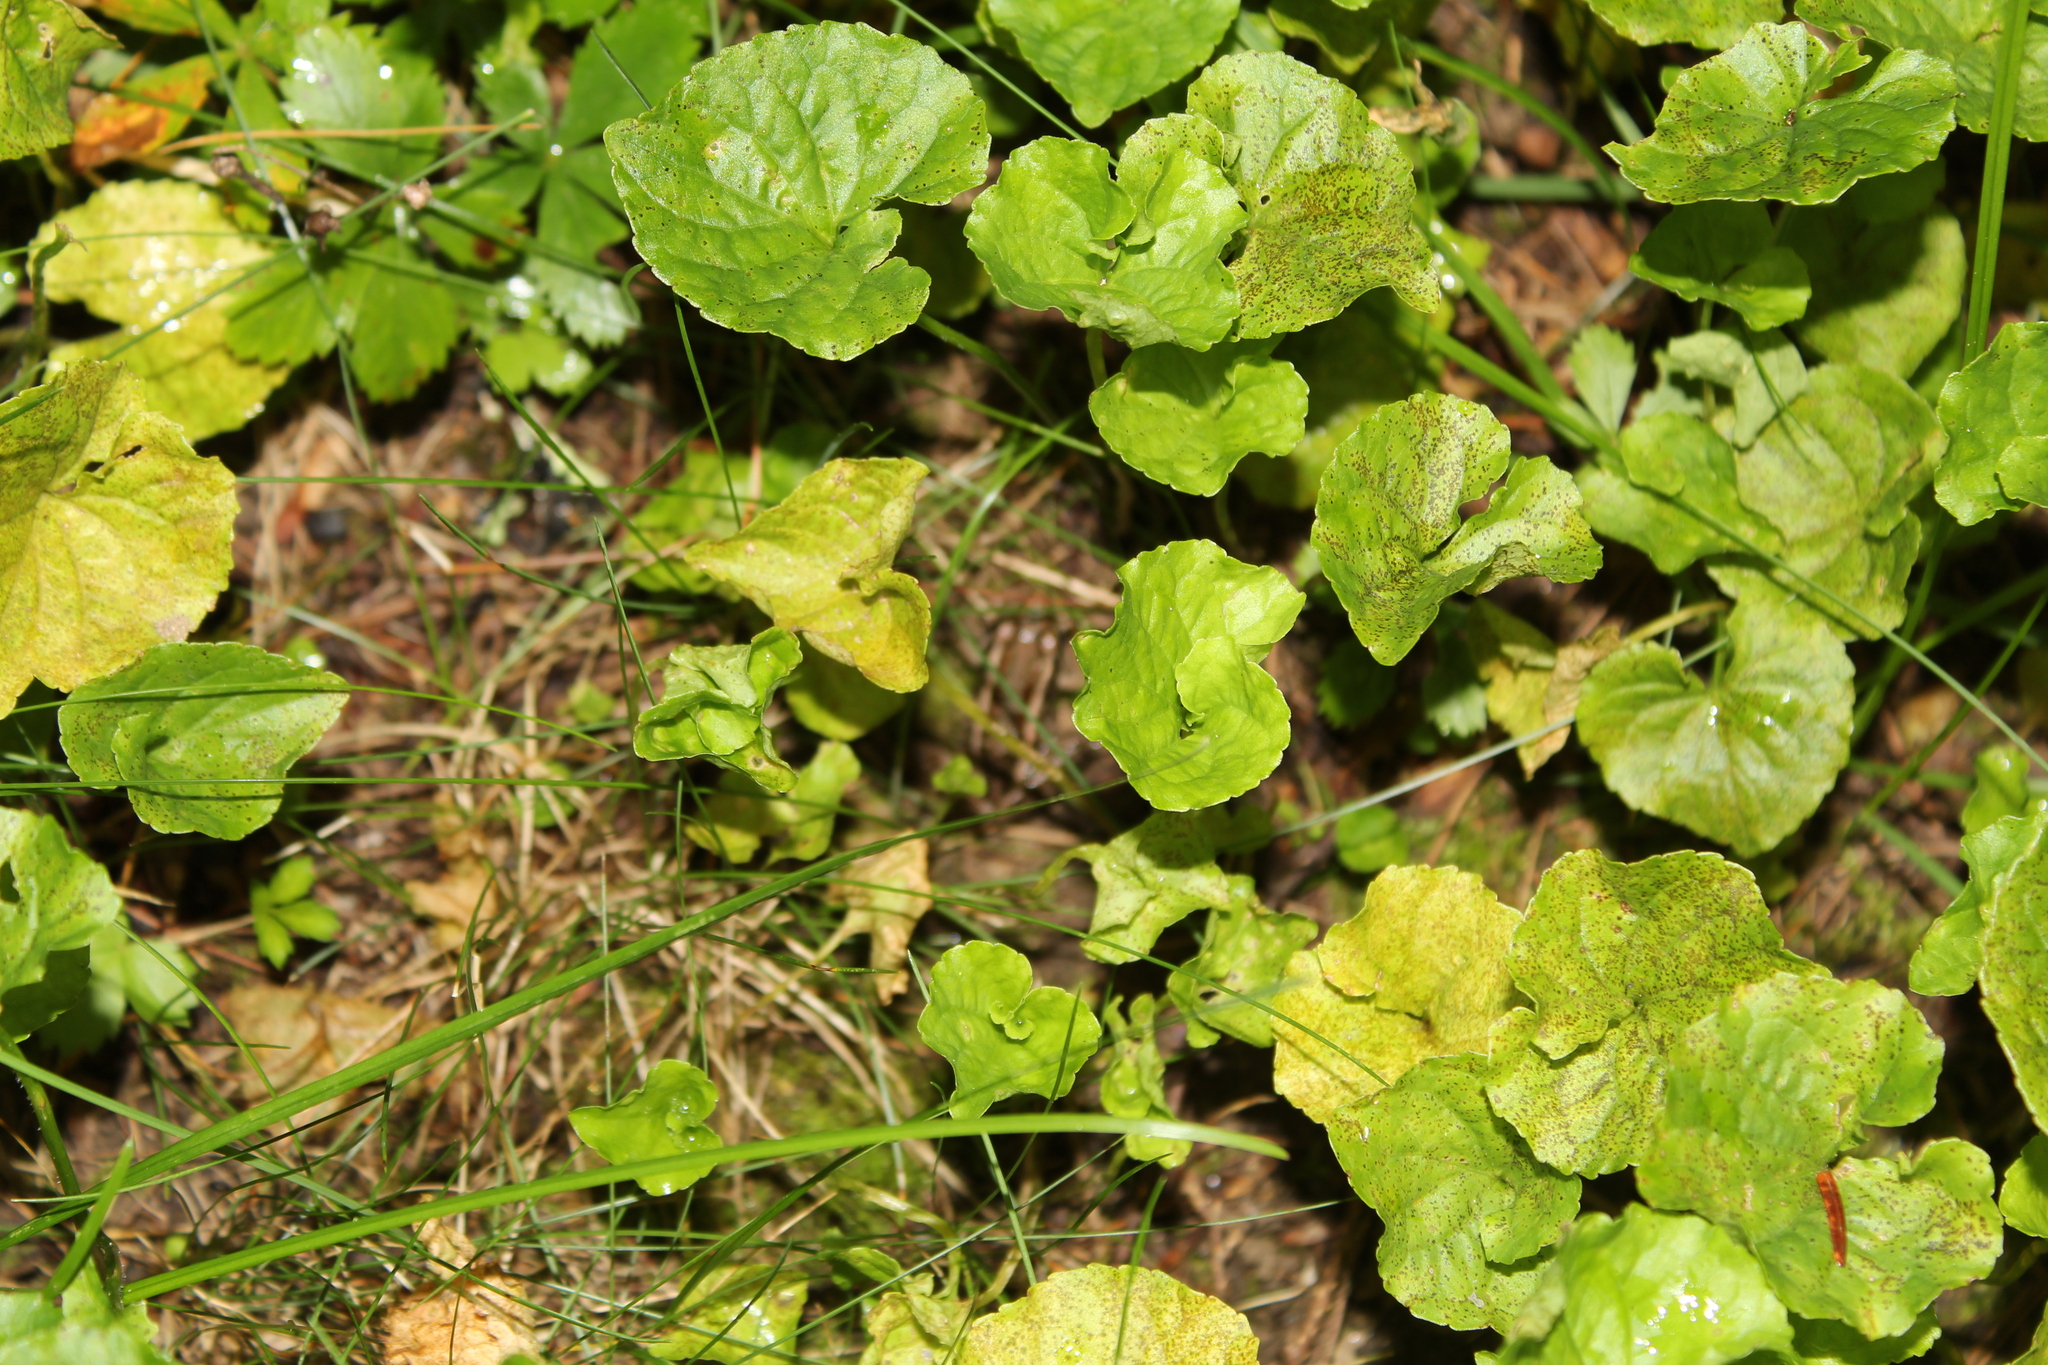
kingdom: Animalia
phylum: Chordata
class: Amphibia
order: Anura
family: Ranidae
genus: Lithobates
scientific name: Lithobates palustris
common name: Pickerel frog
